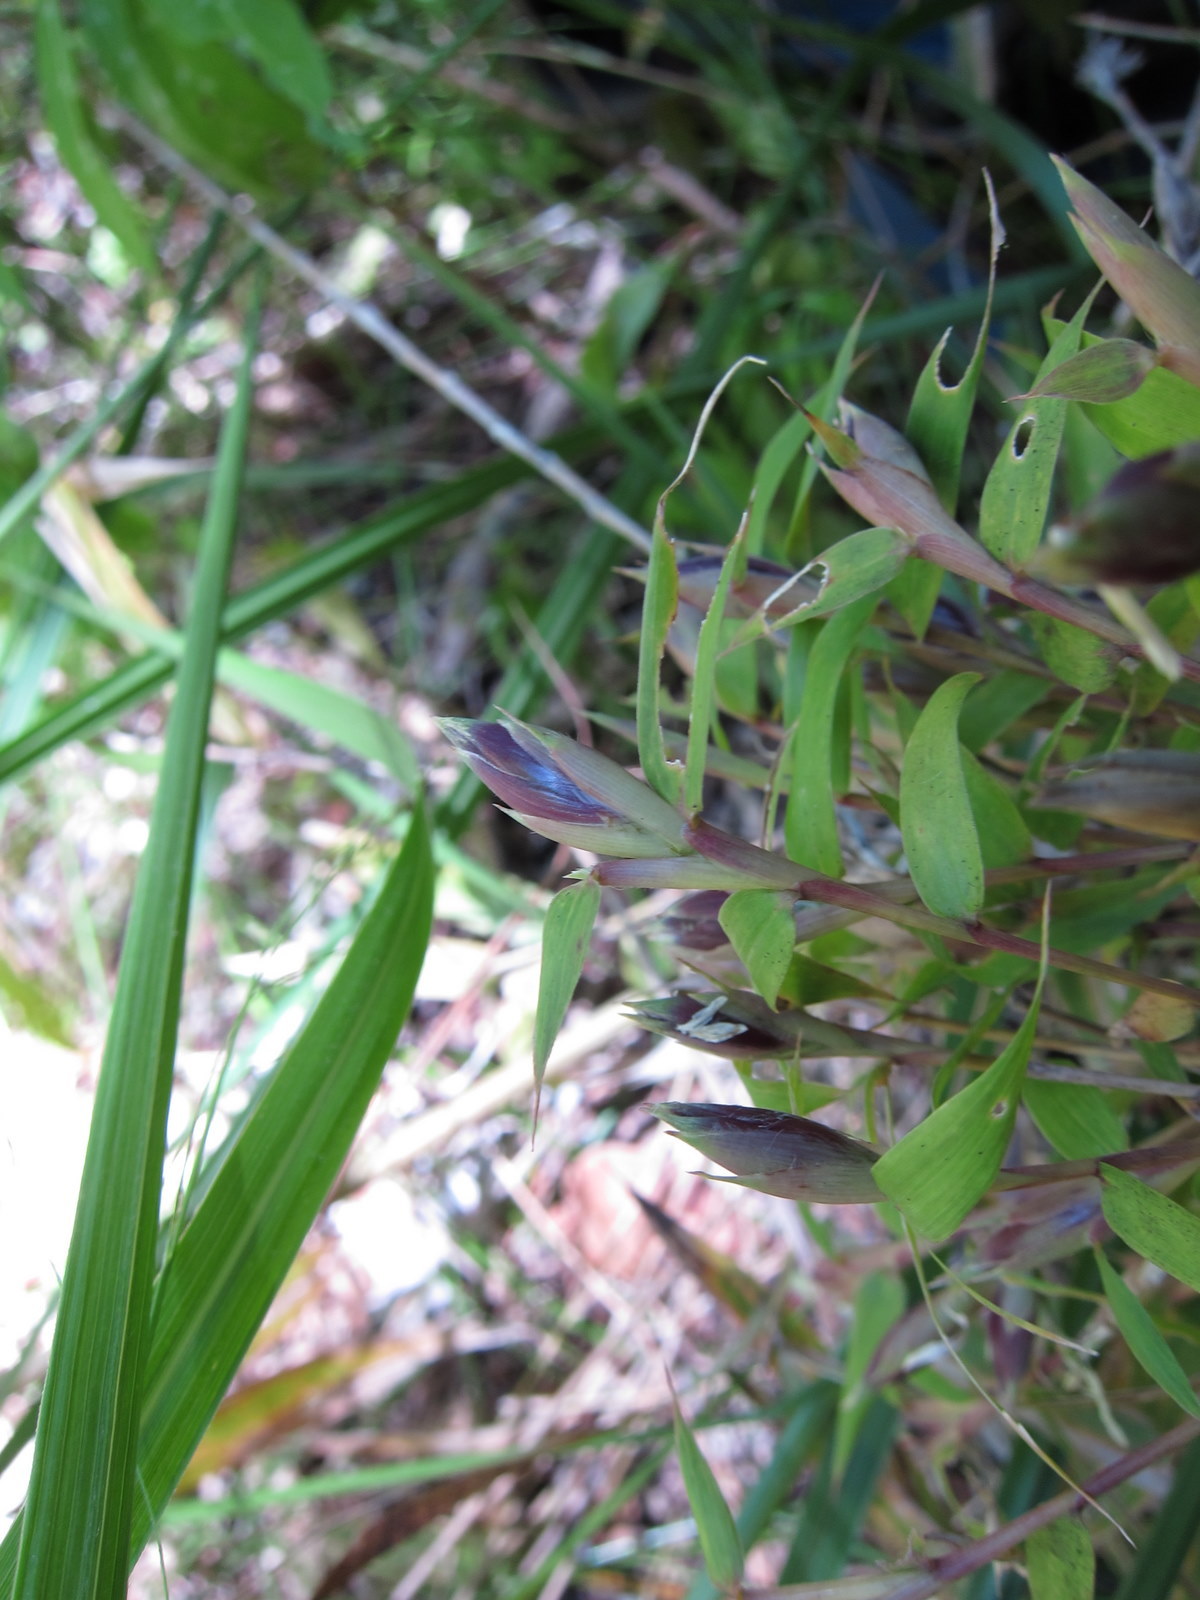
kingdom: Plantae
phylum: Tracheophyta
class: Liliopsida
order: Poales
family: Poaceae
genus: Hickelia
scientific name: Hickelia madagascariensis
